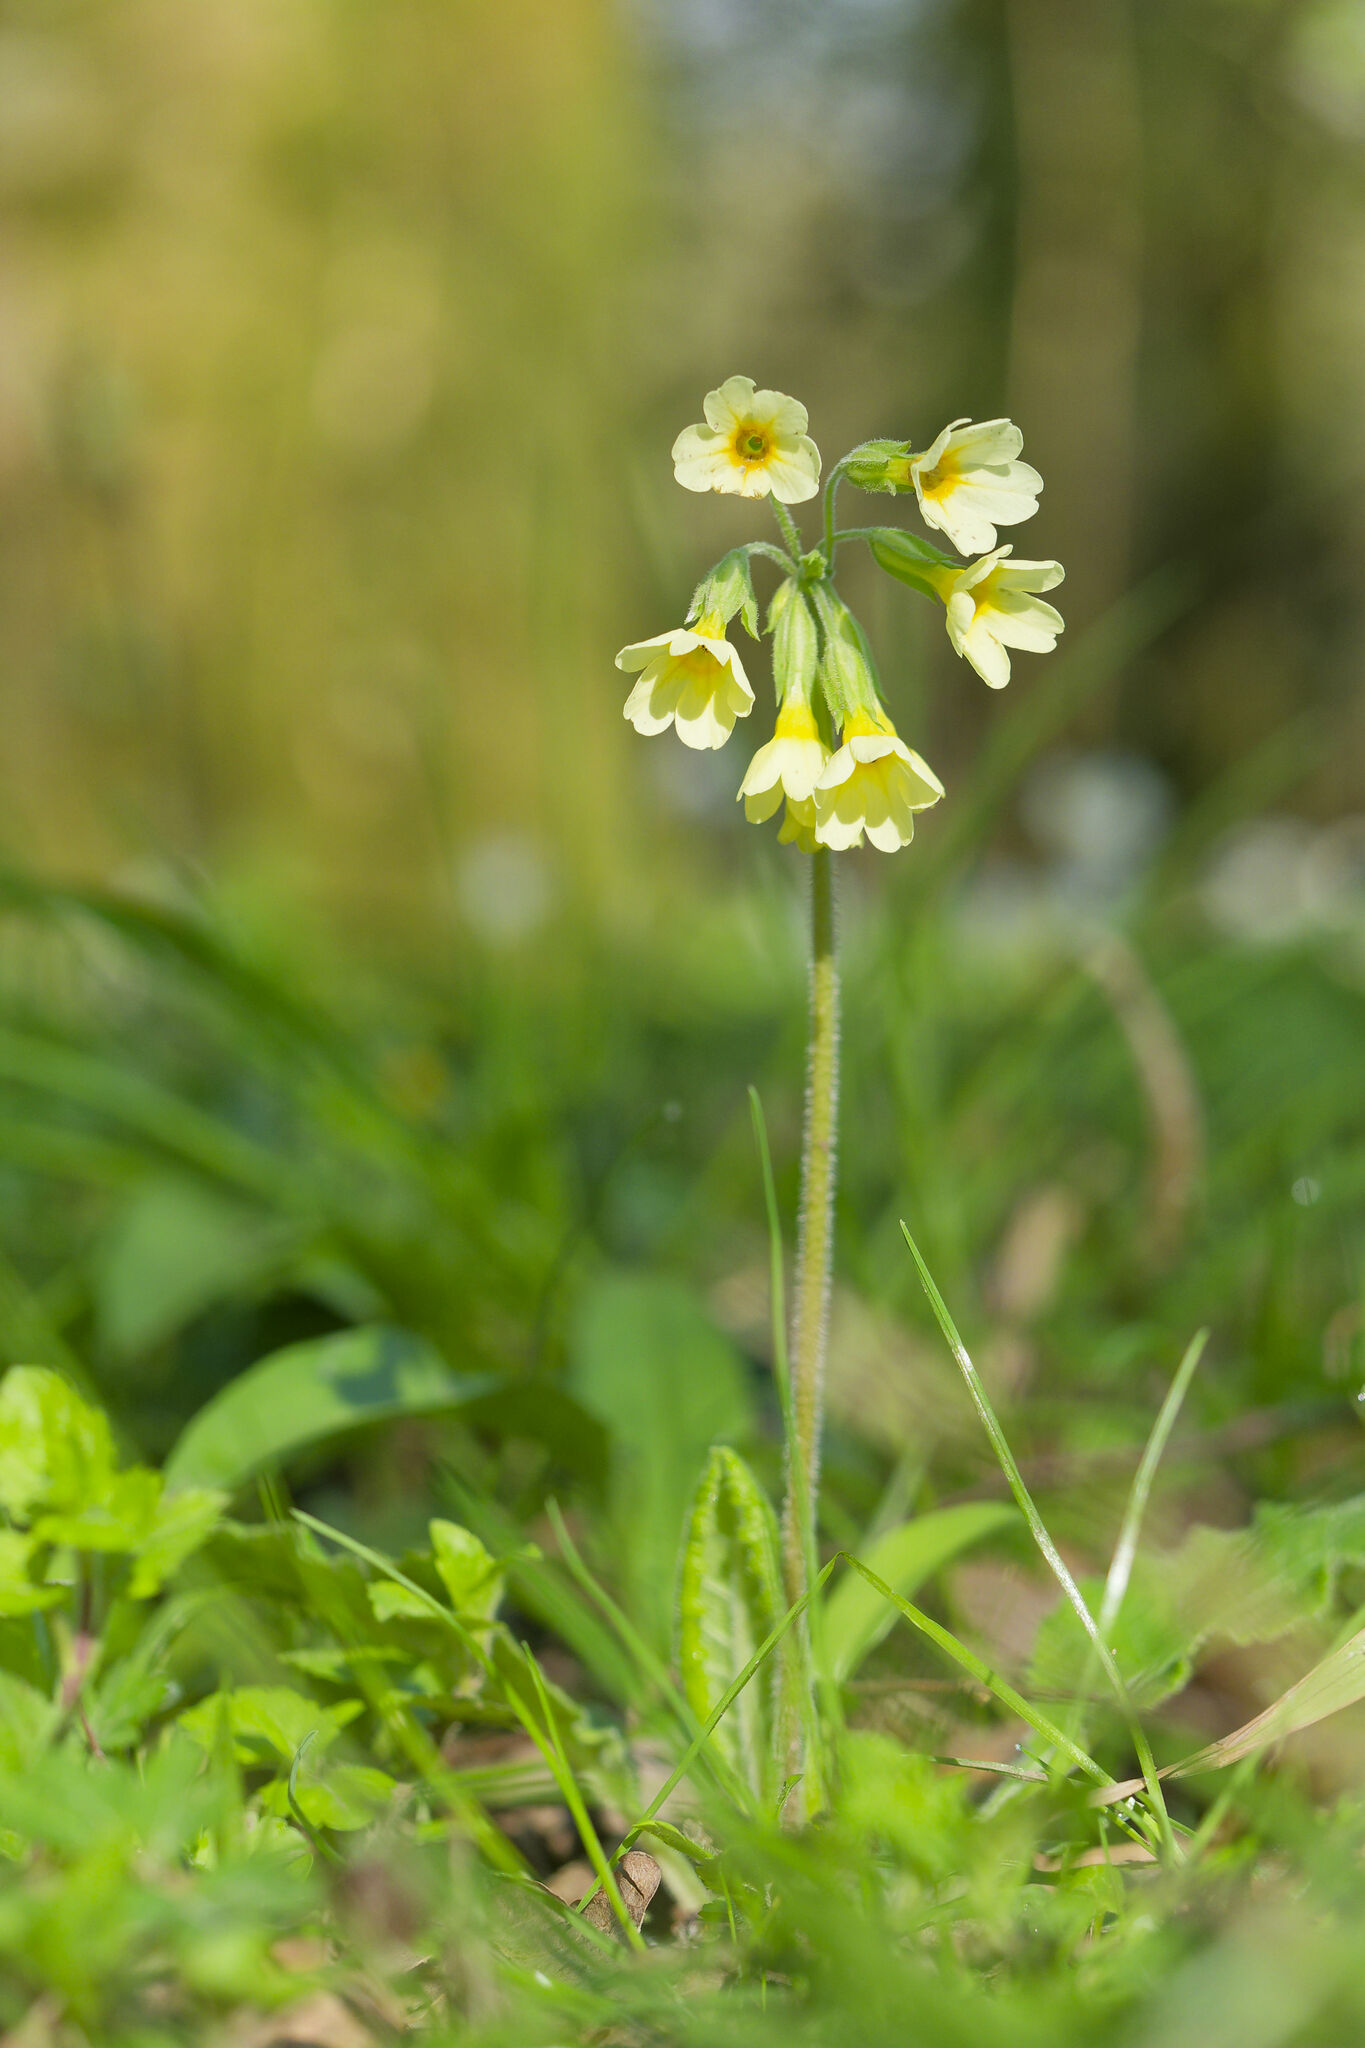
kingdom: Plantae
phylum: Tracheophyta
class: Magnoliopsida
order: Ericales
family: Primulaceae
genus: Primula
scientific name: Primula elatior
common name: Oxlip
